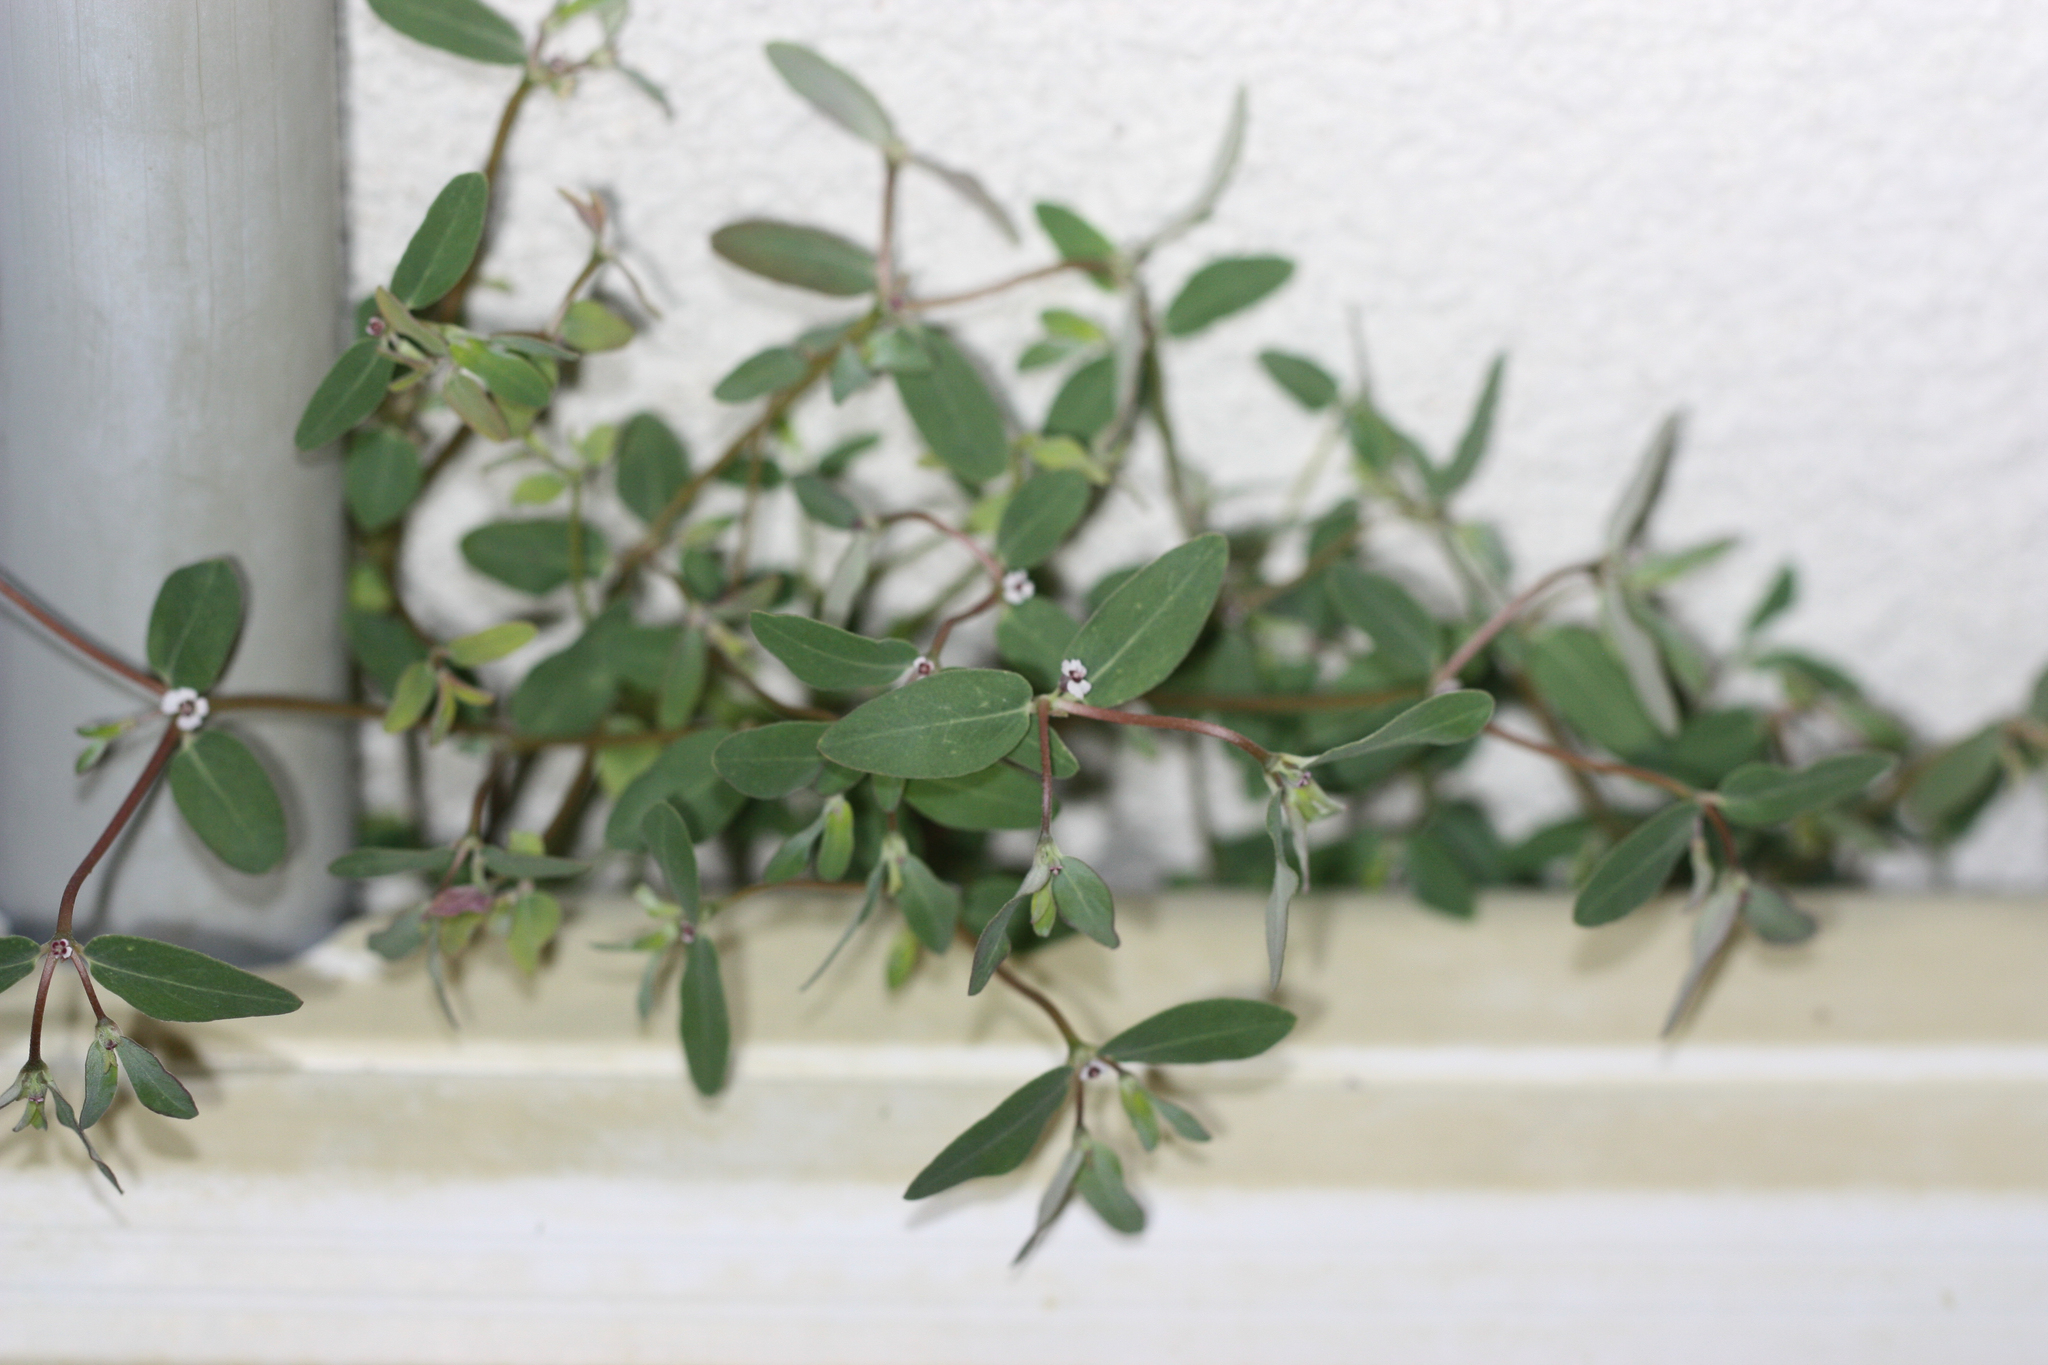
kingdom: Plantae
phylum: Tracheophyta
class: Magnoliopsida
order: Malpighiales
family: Euphorbiaceae
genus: Euphorbia
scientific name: Euphorbia pediculifera
